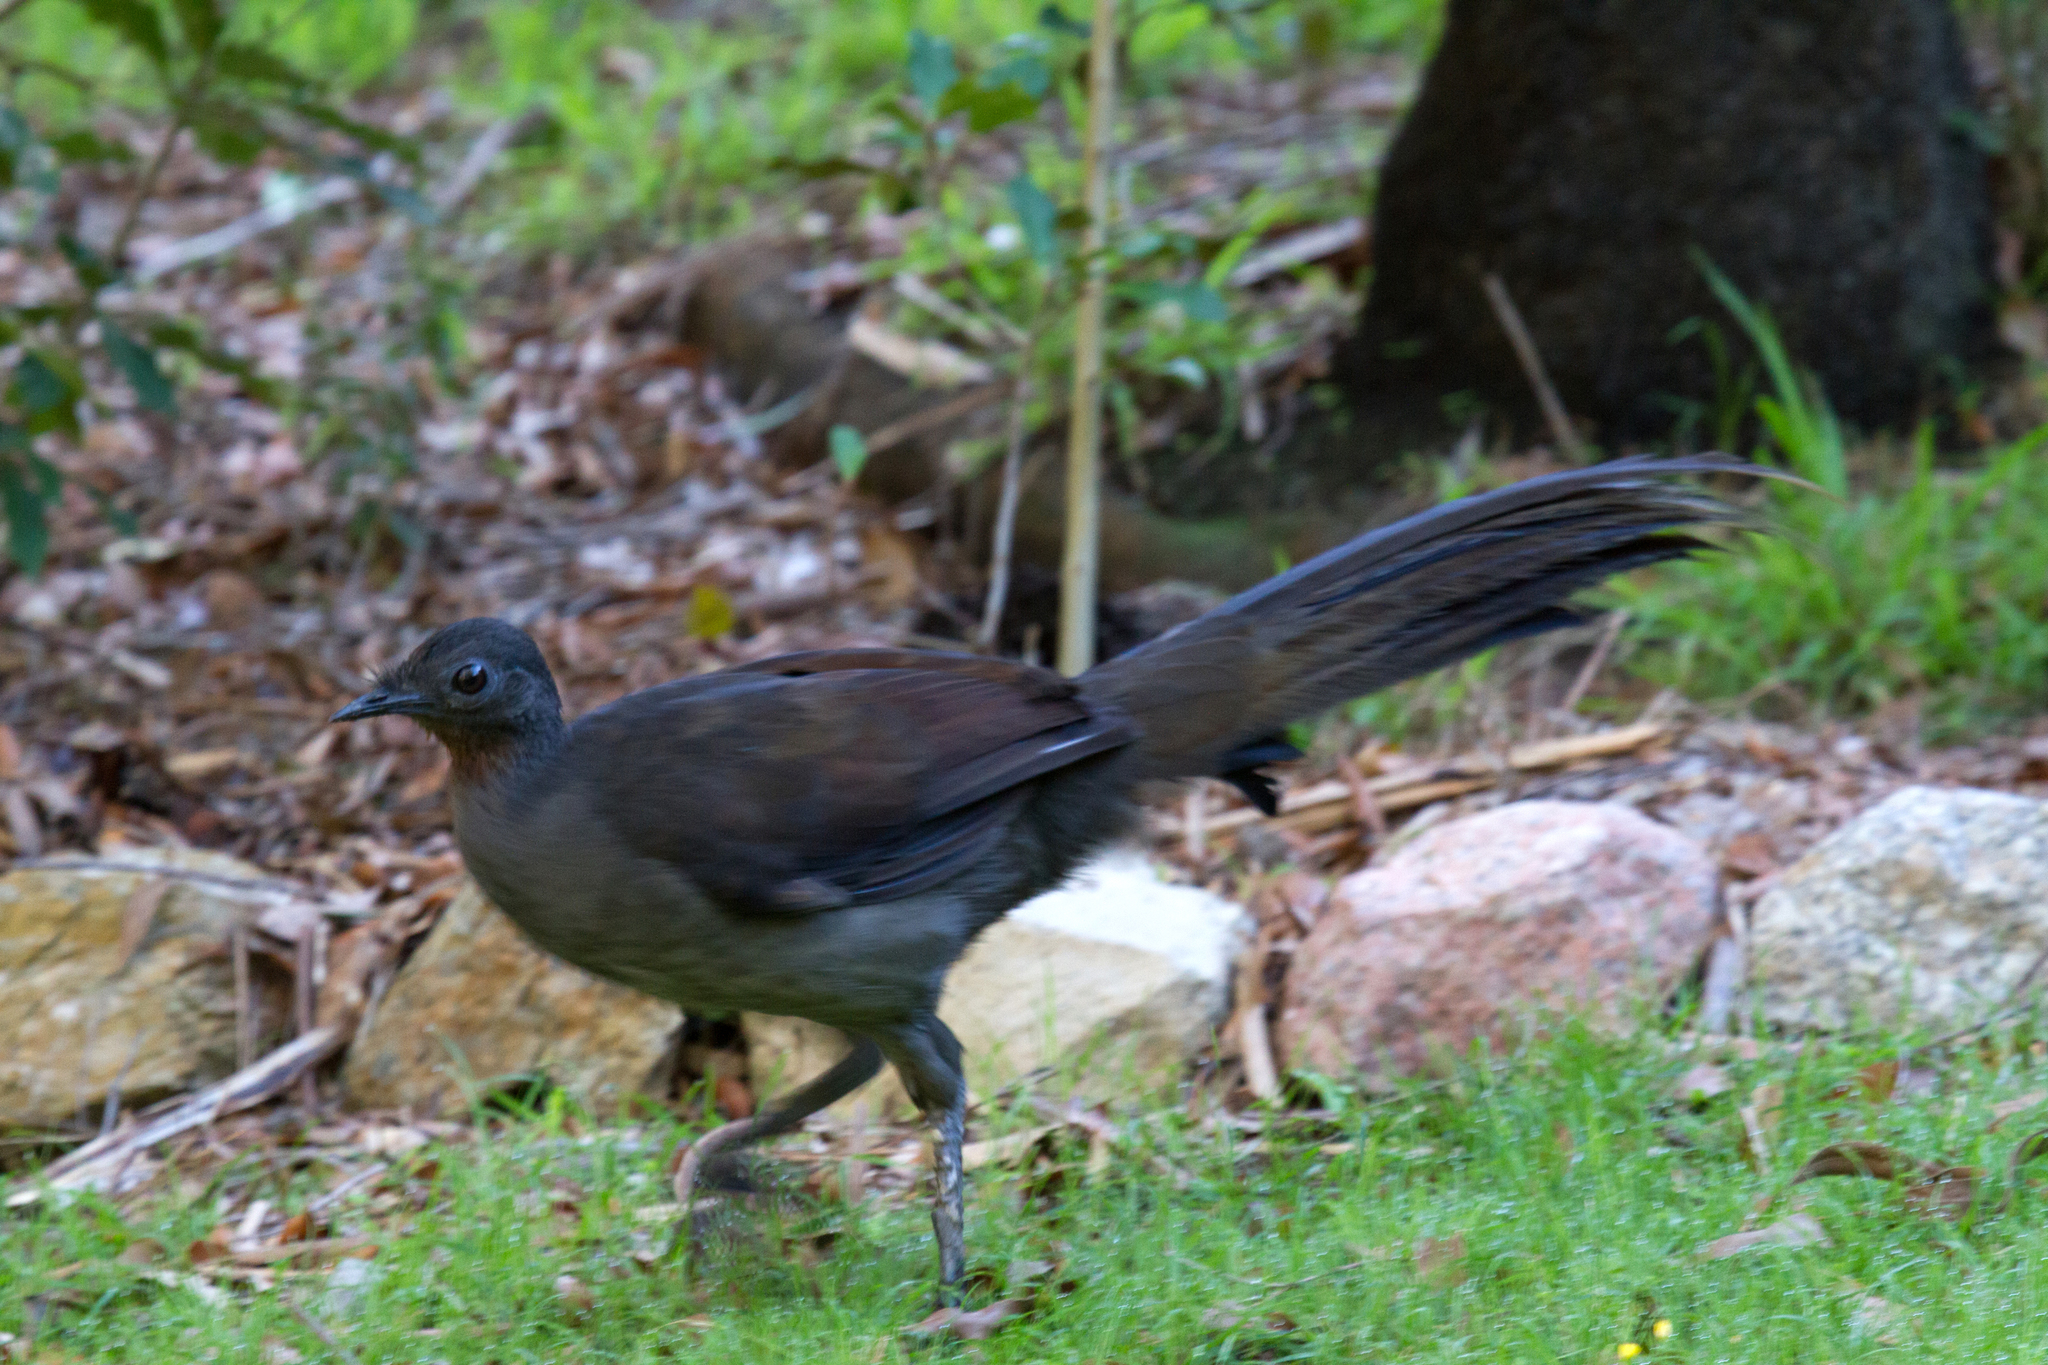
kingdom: Animalia
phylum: Chordata
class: Aves
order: Passeriformes
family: Menuridae
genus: Menura
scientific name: Menura novaehollandiae
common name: Superb lyrebird
